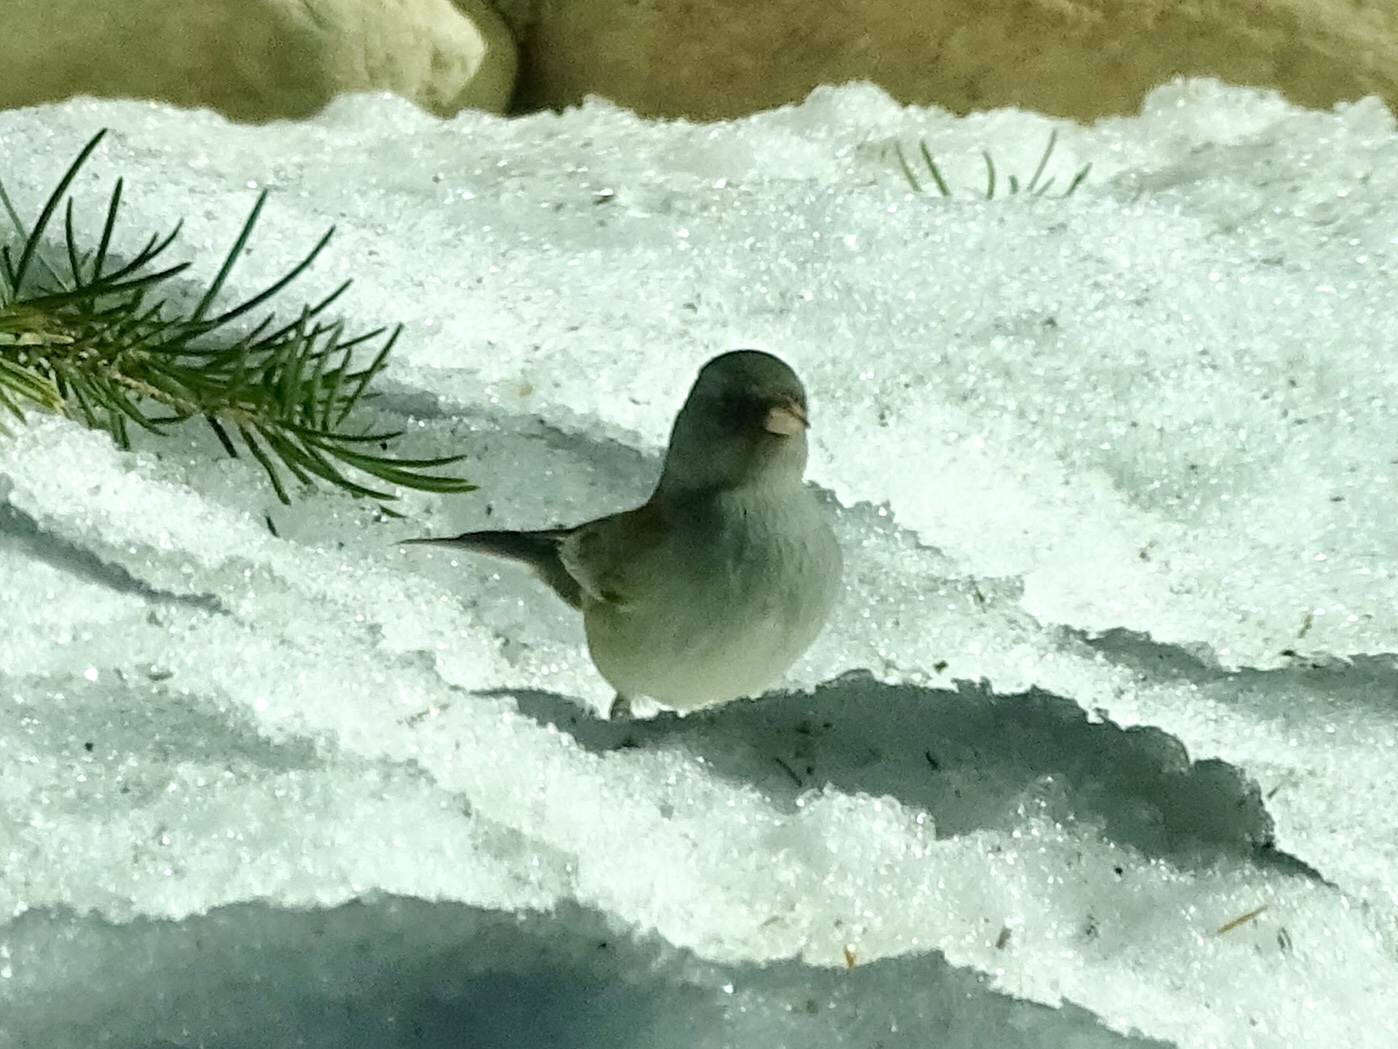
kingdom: Animalia
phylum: Chordata
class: Aves
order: Passeriformes
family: Passerellidae
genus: Junco
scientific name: Junco hyemalis
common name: Dark-eyed junco
